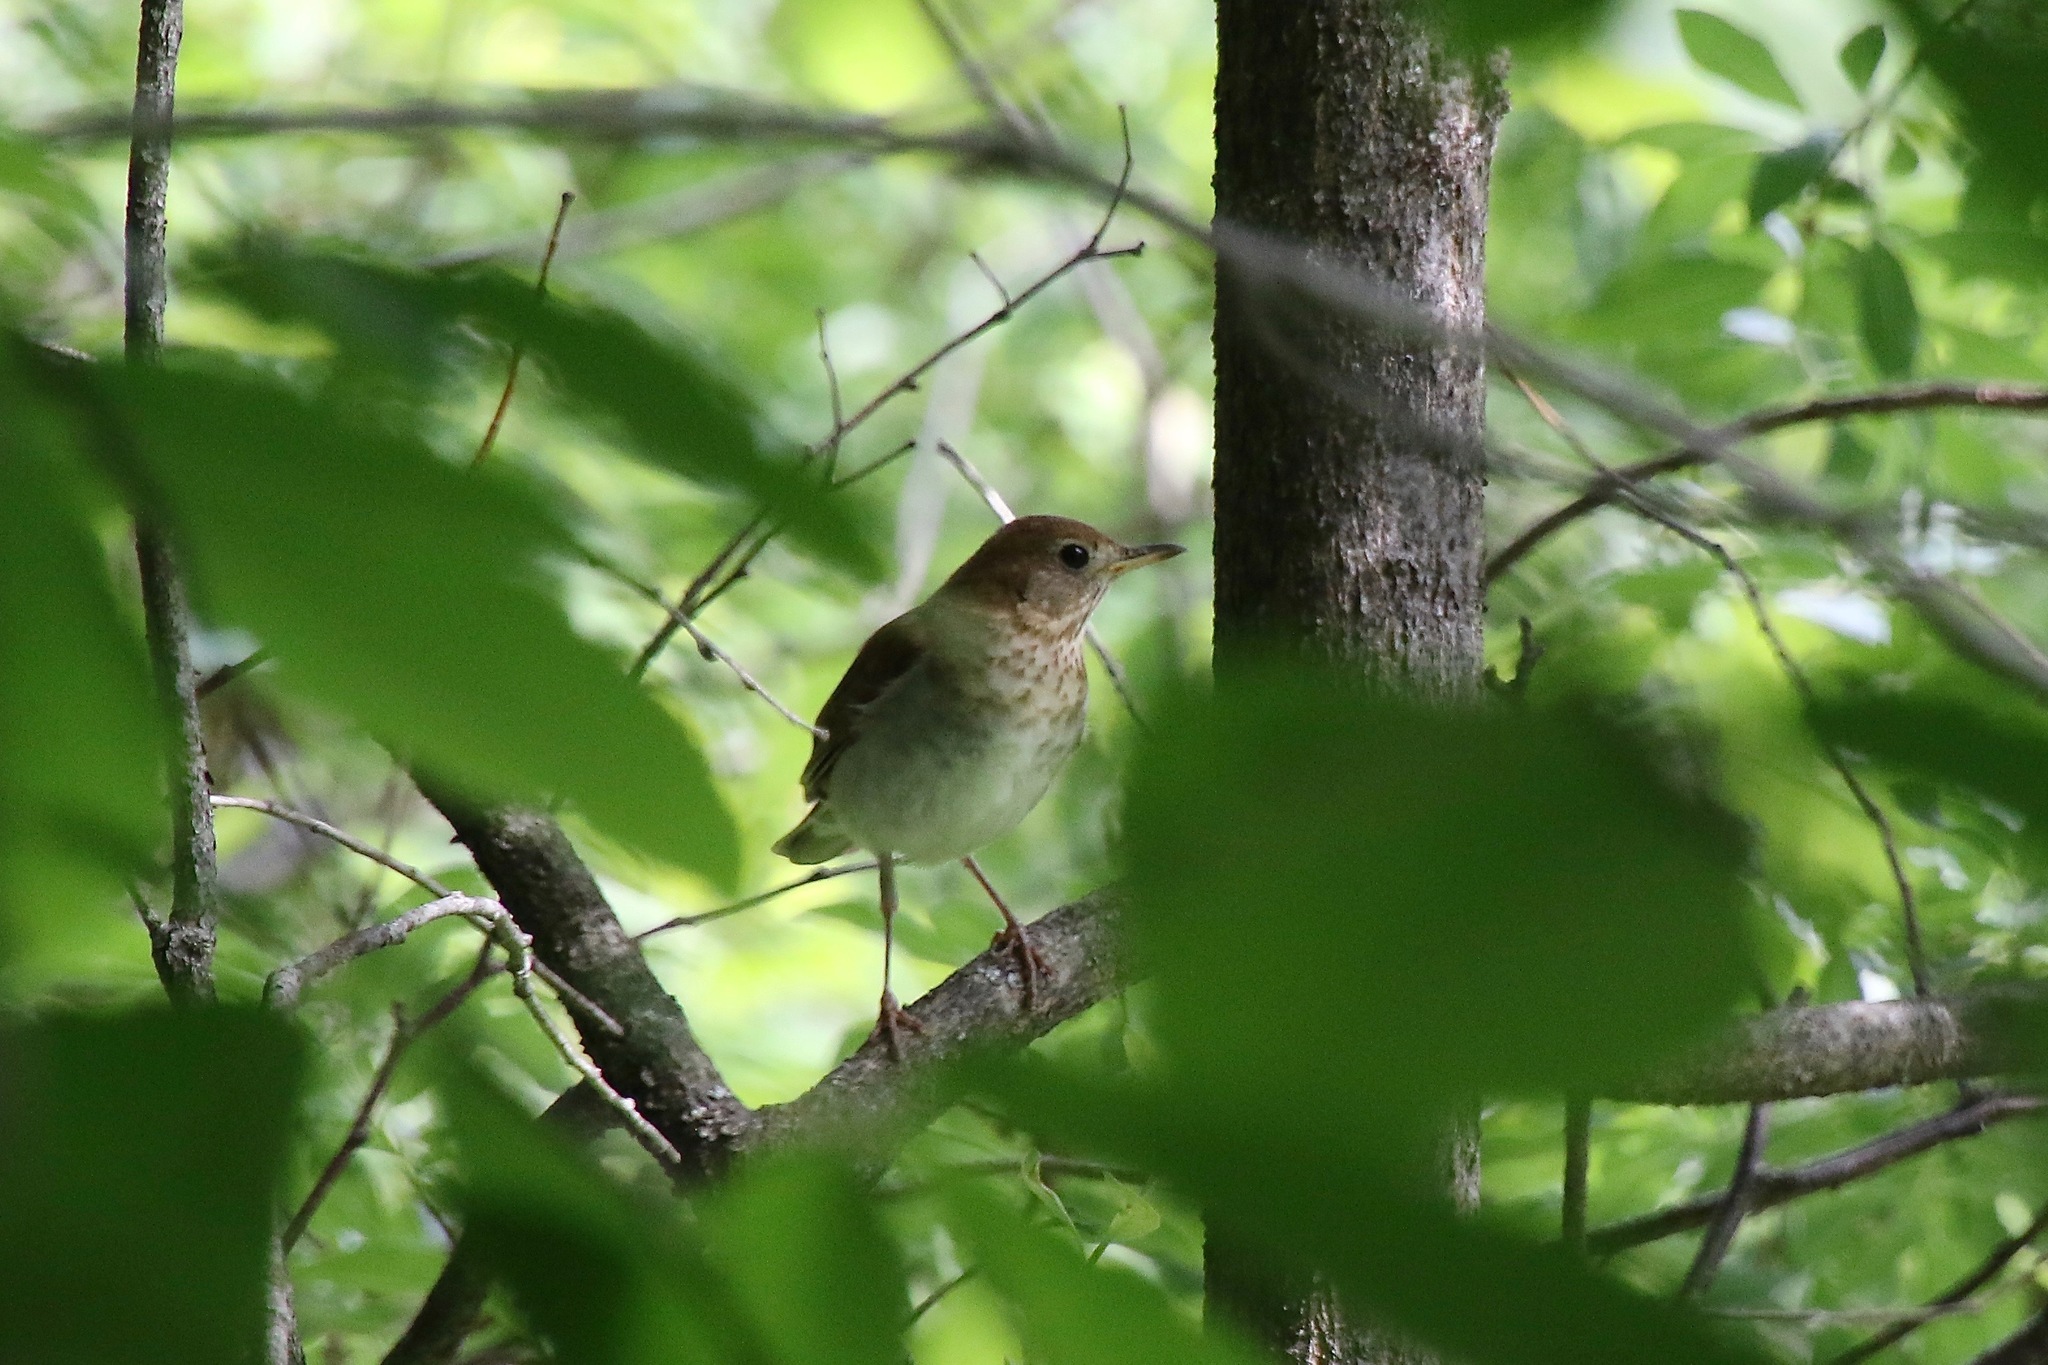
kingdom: Animalia
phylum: Chordata
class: Aves
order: Passeriformes
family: Turdidae
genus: Catharus
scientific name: Catharus fuscescens
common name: Veery
